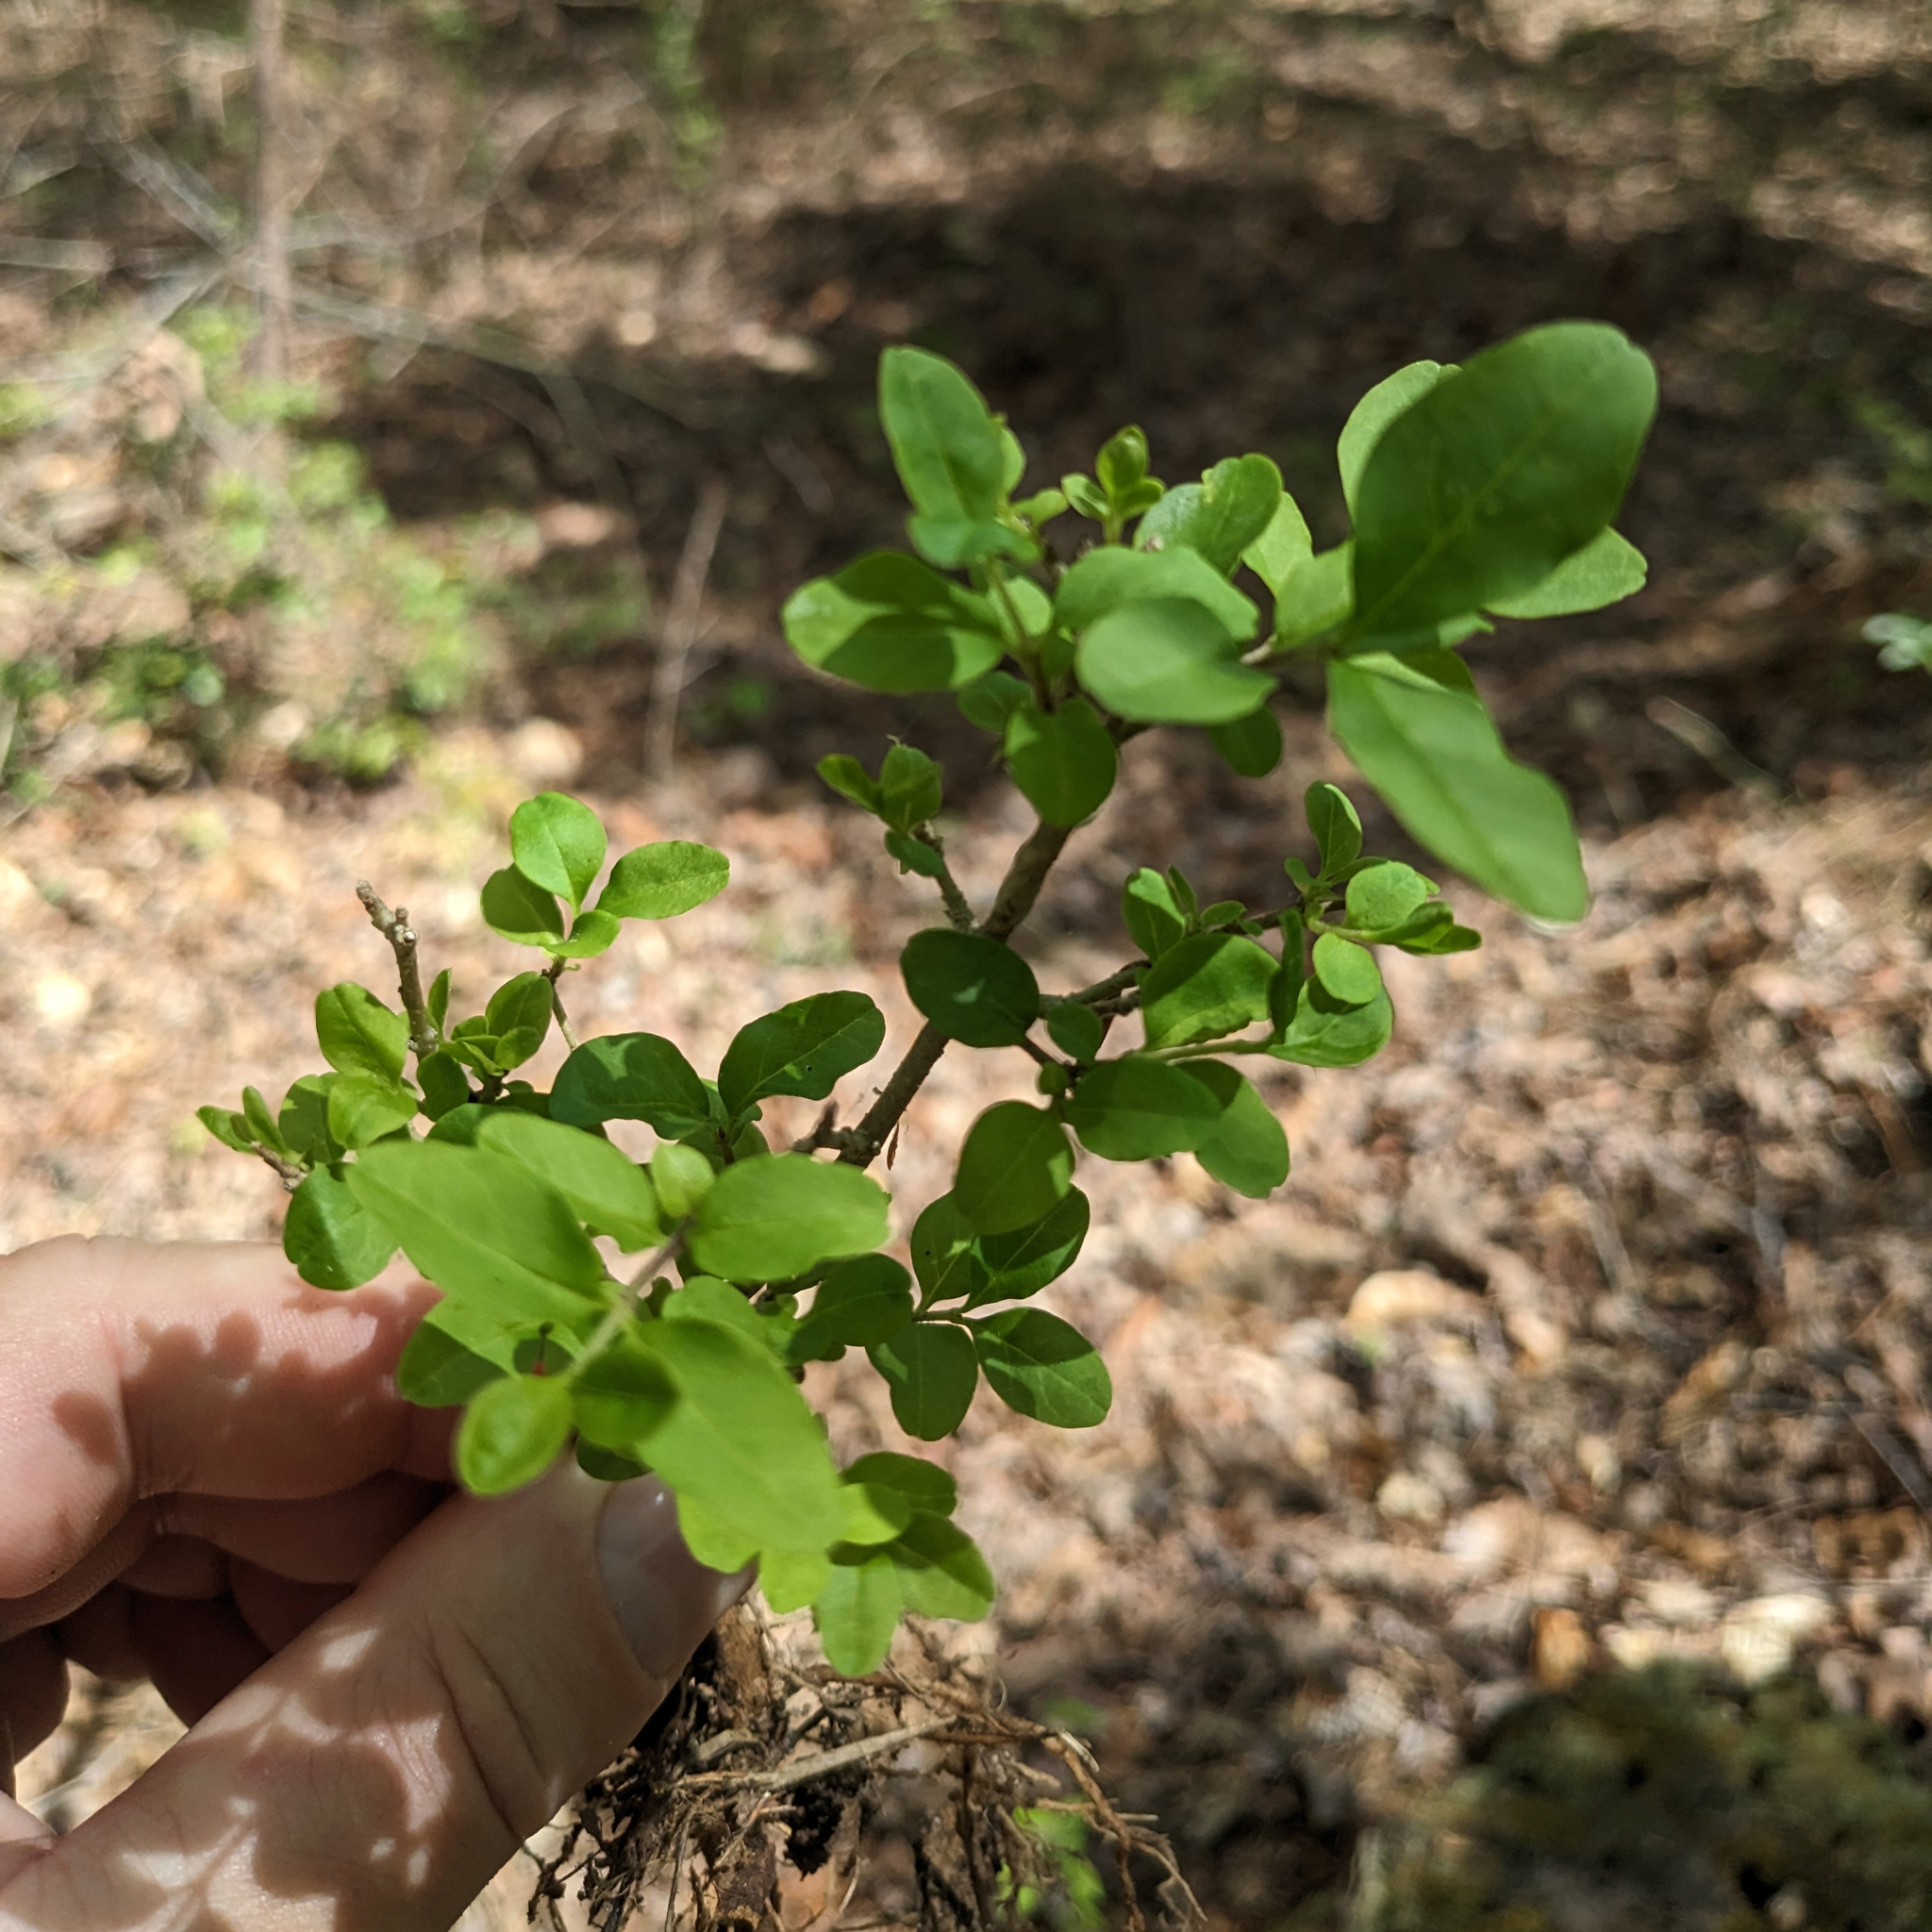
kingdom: Plantae
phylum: Tracheophyta
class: Magnoliopsida
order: Lamiales
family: Oleaceae
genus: Ligustrum
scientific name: Ligustrum sinense
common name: Chinese privet
